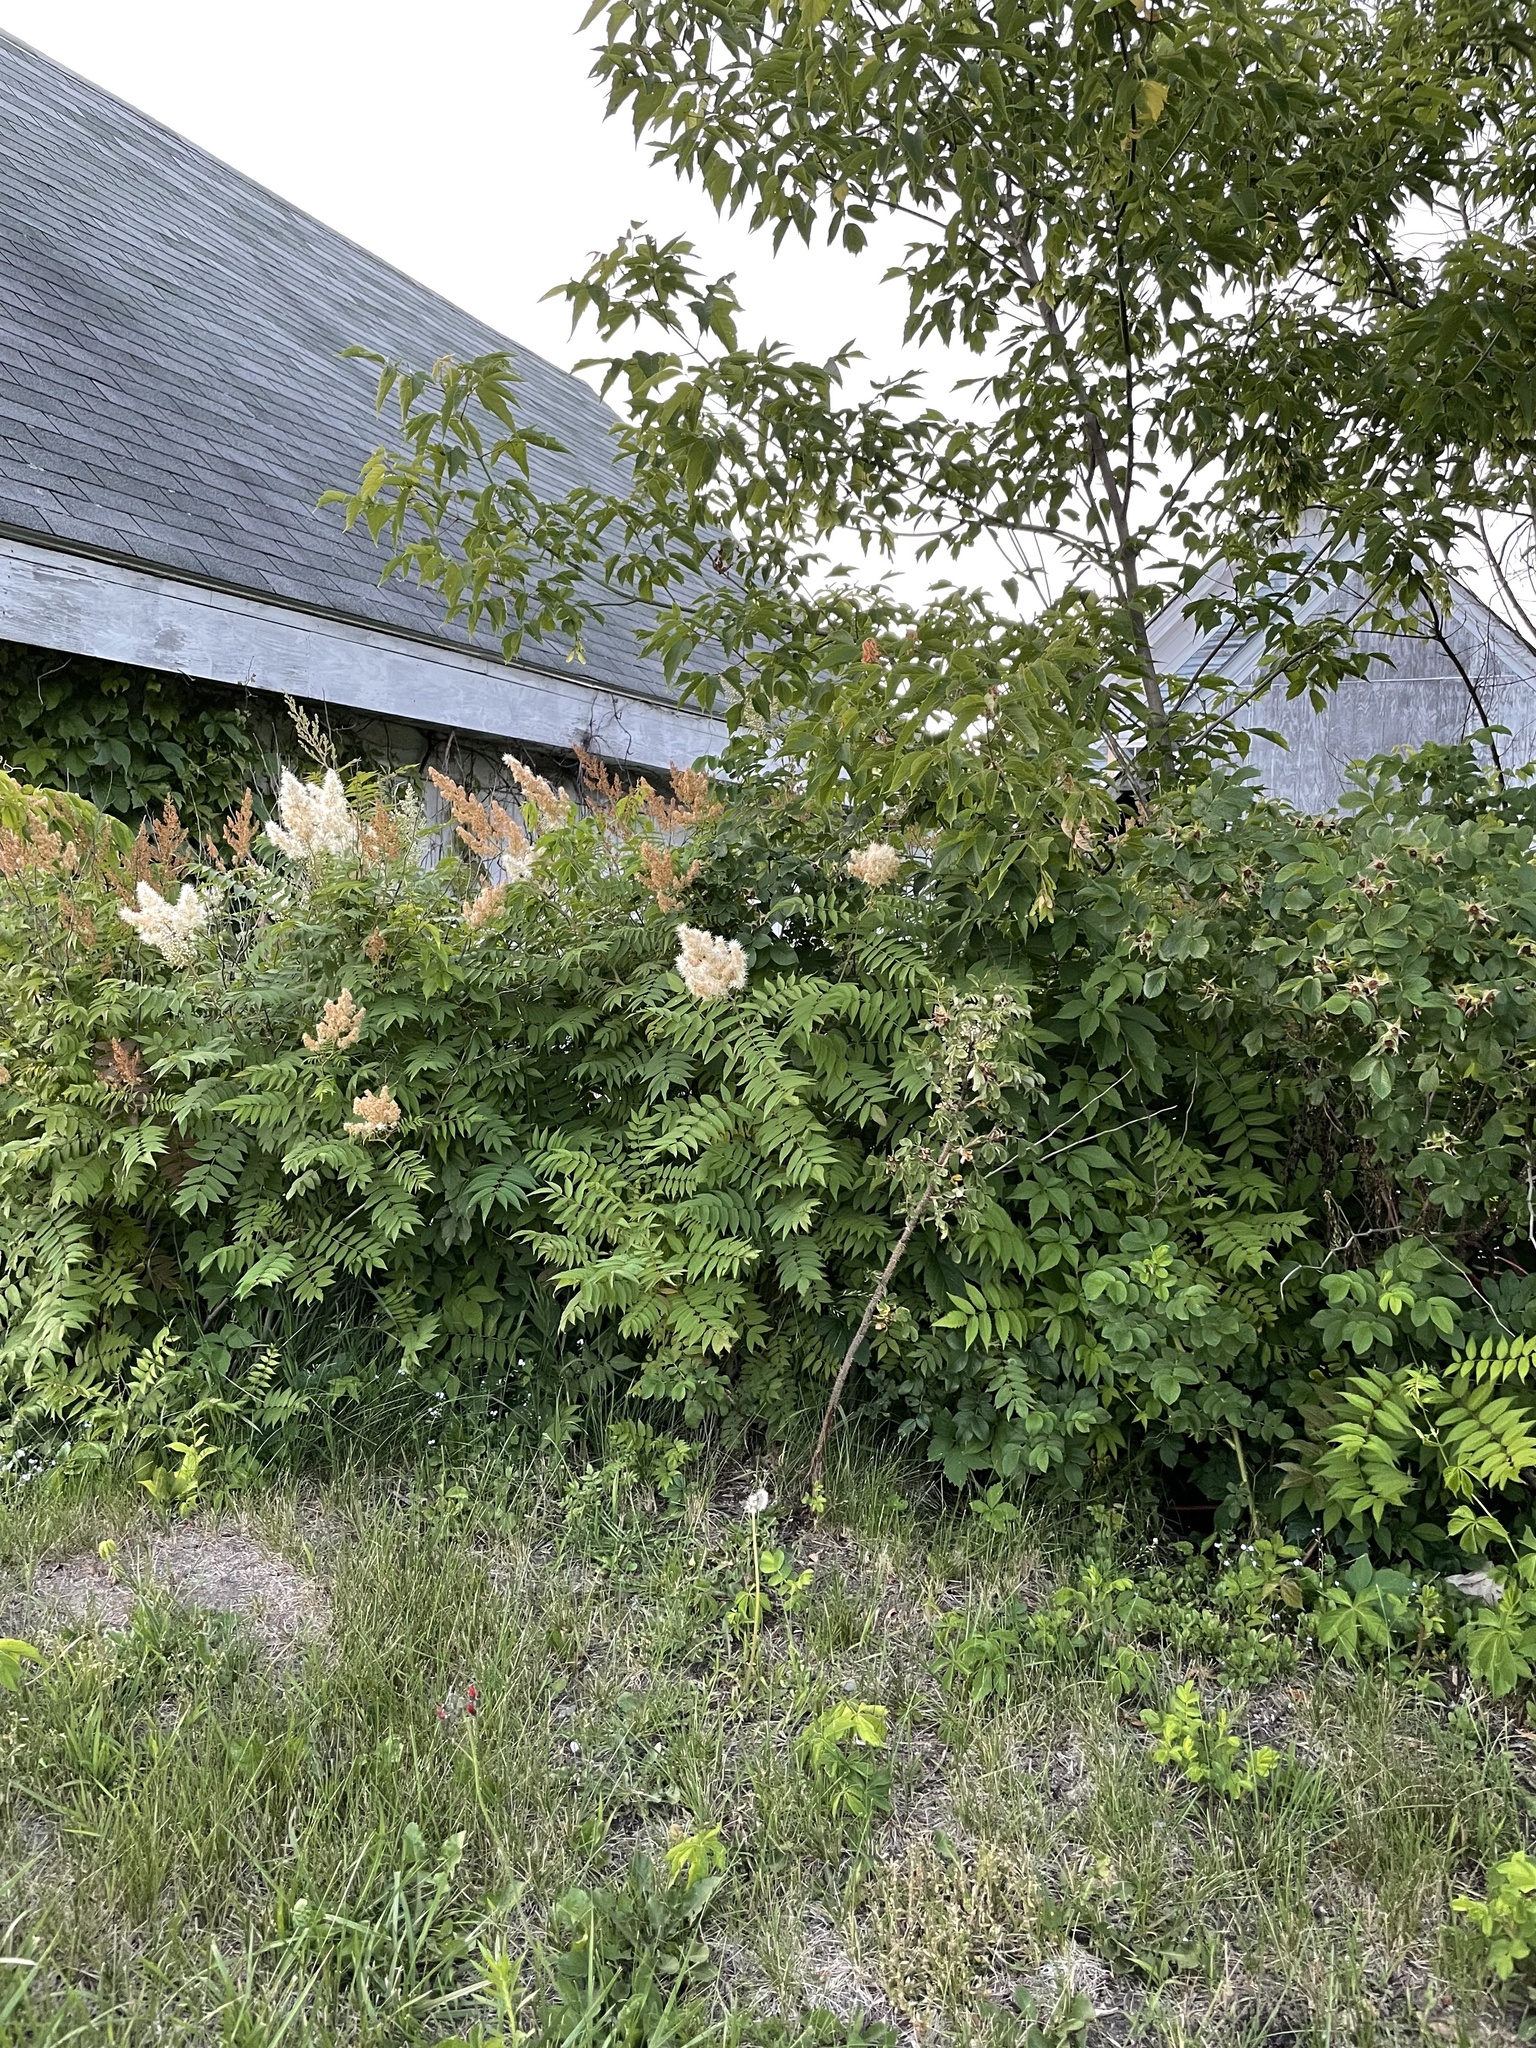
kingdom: Plantae
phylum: Tracheophyta
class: Magnoliopsida
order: Rosales
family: Rosaceae
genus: Sorbaria
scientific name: Sorbaria sorbifolia
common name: False spiraea
